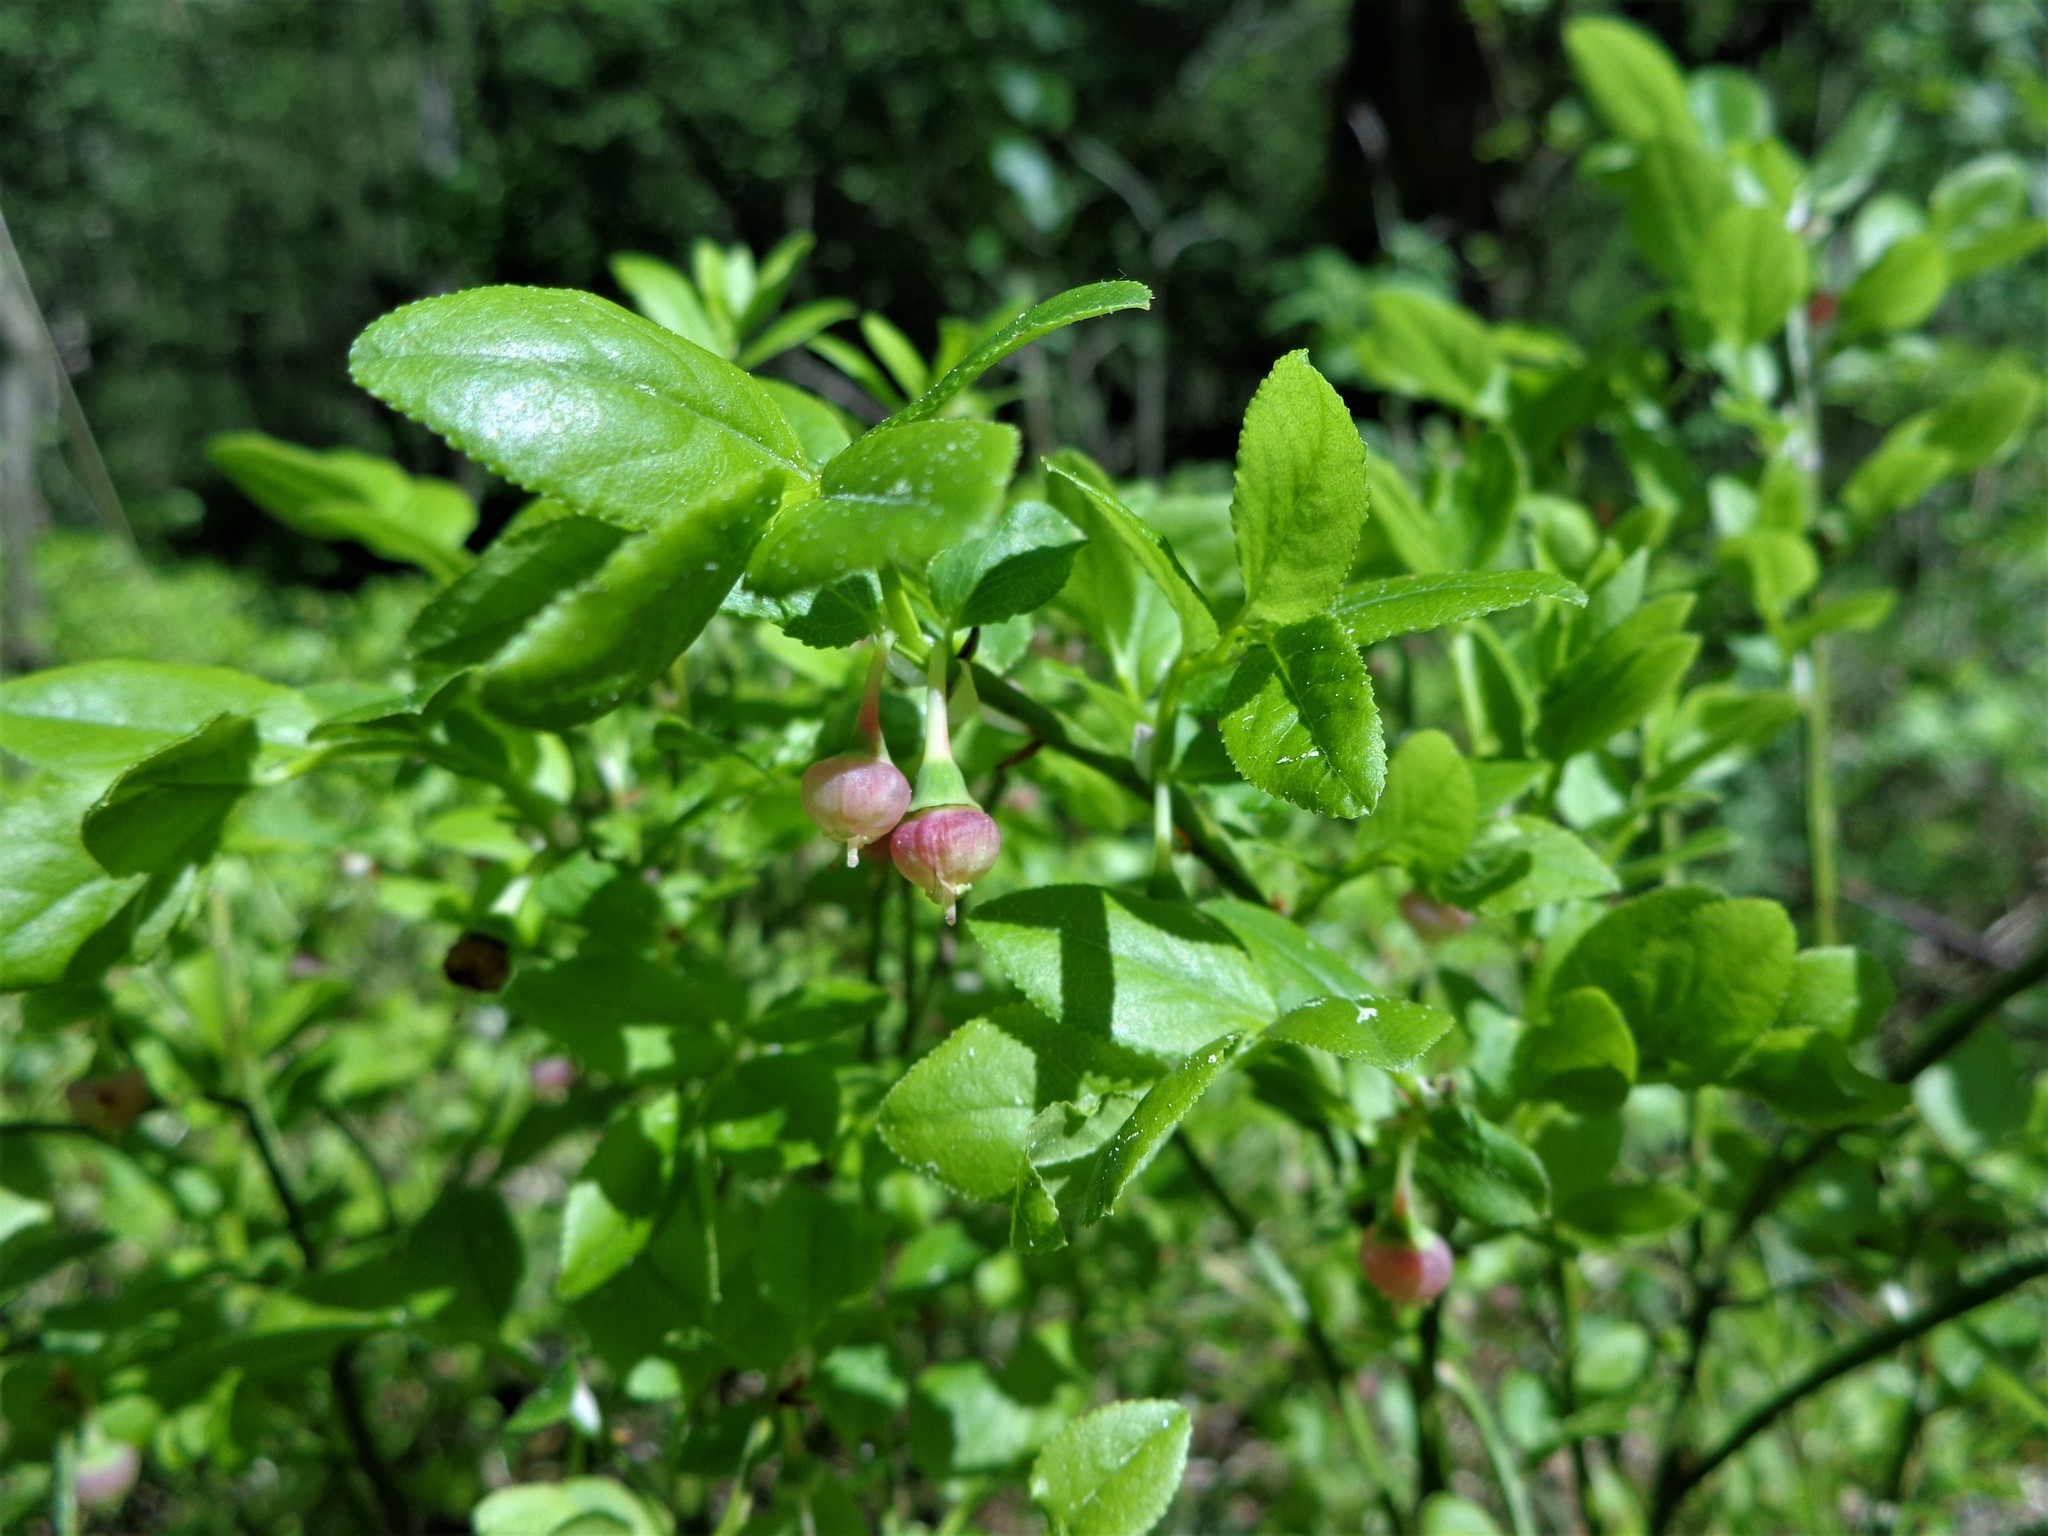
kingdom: Plantae
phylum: Tracheophyta
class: Magnoliopsida
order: Ericales
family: Ericaceae
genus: Vaccinium
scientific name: Vaccinium myrtillus
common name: Bilberry
